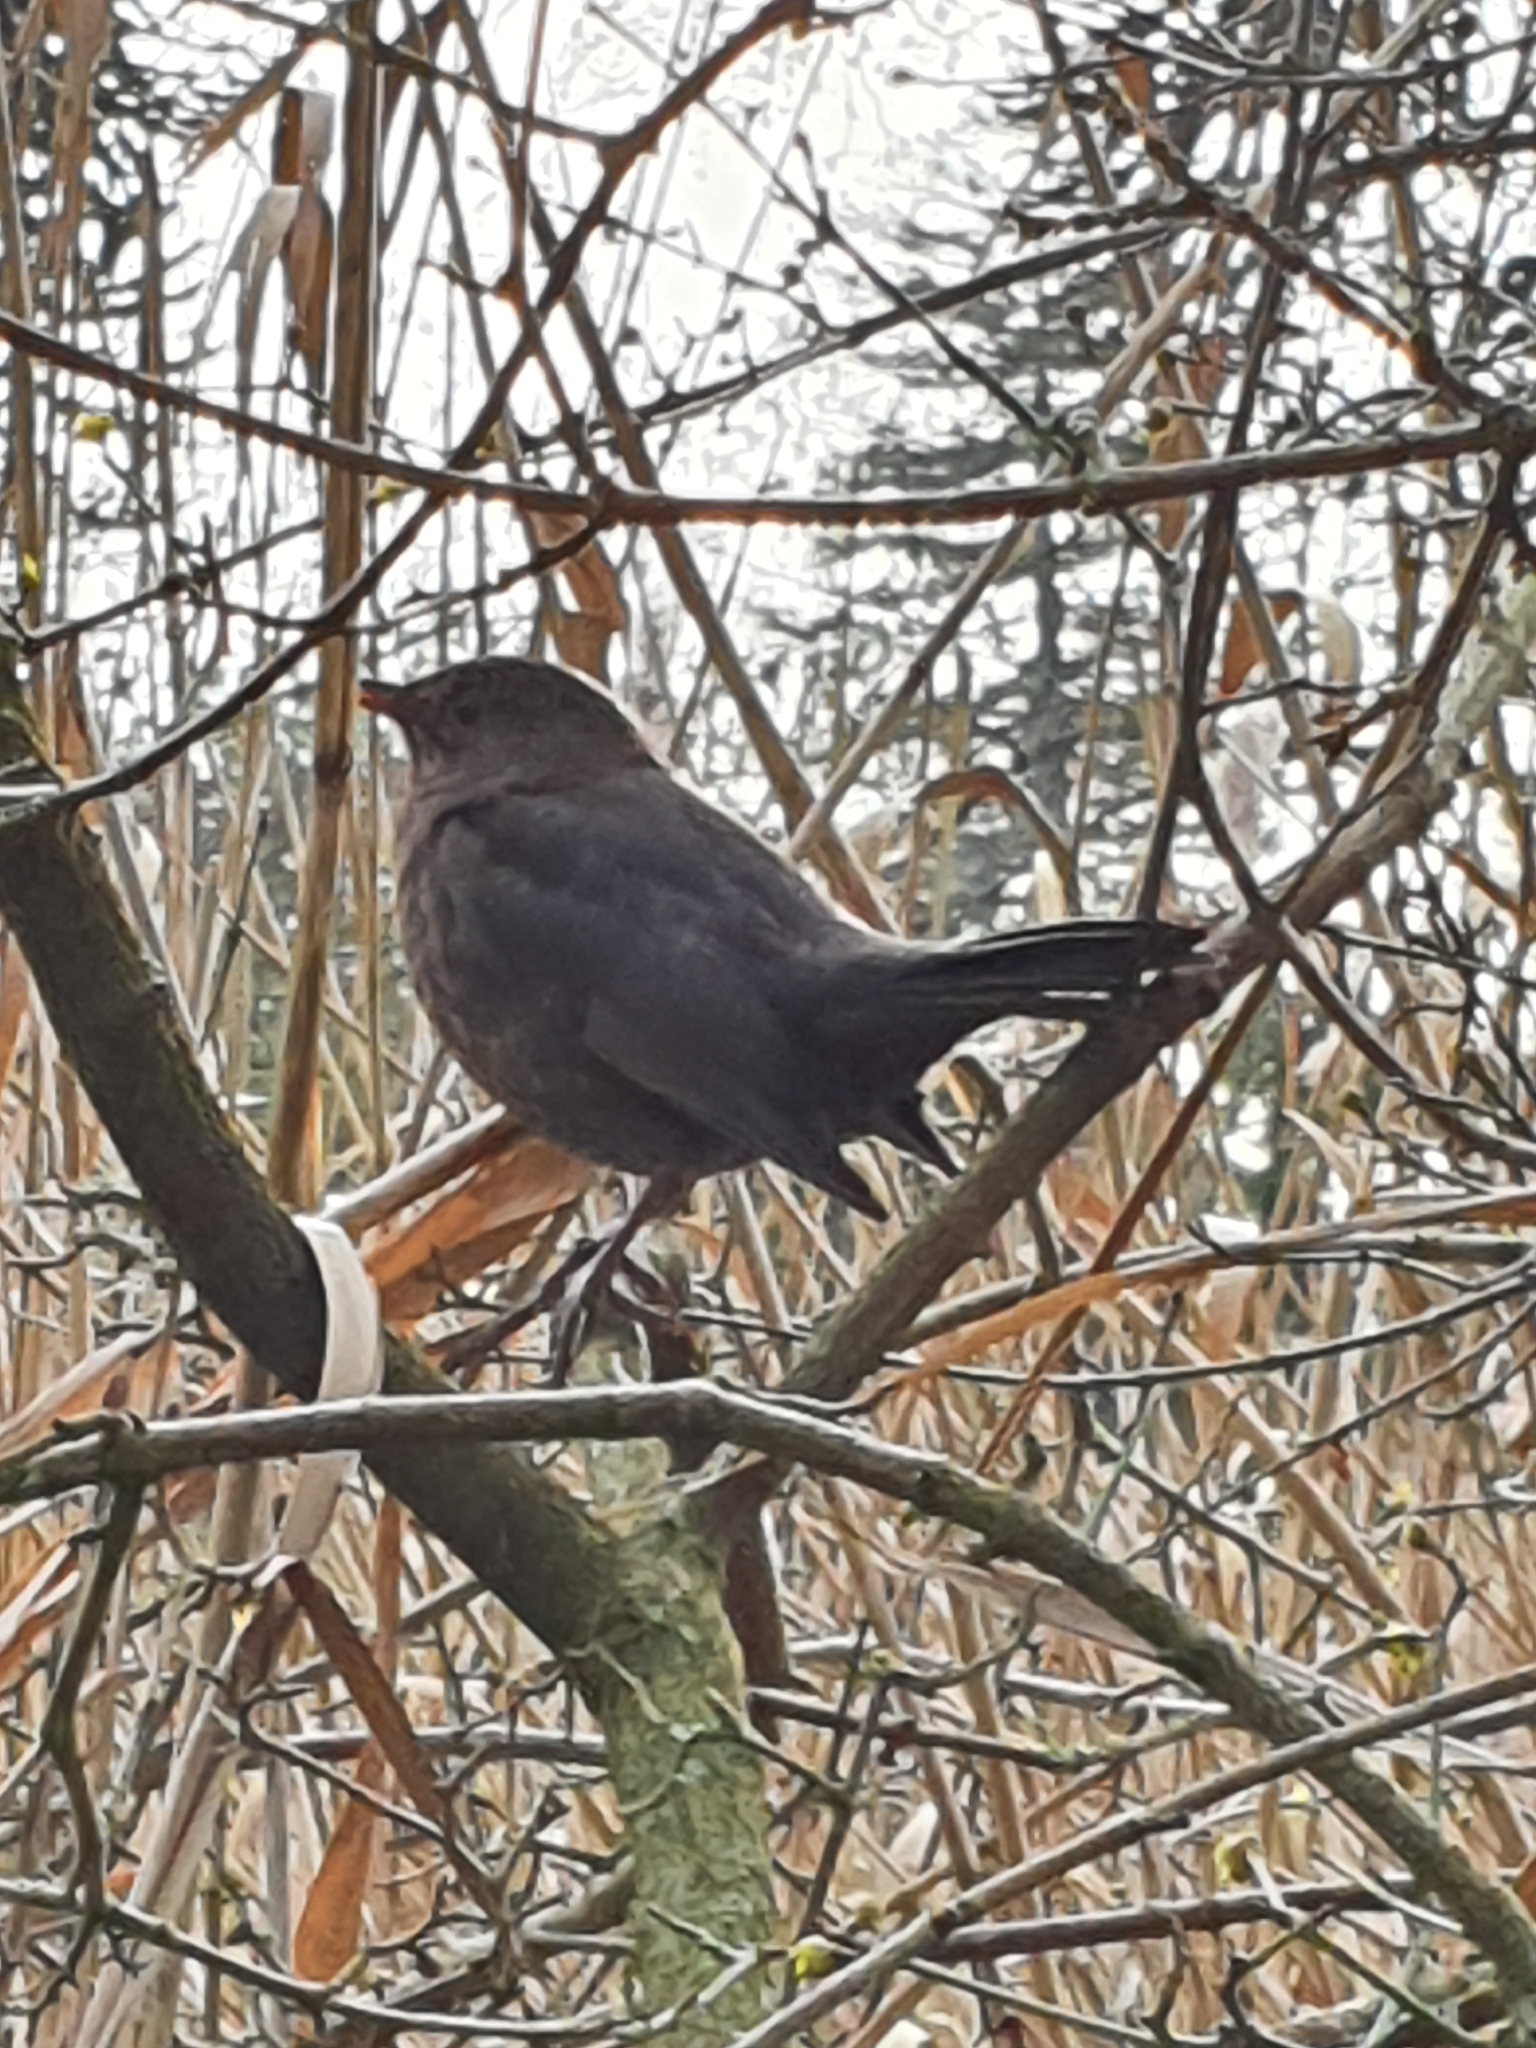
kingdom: Animalia
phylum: Chordata
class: Aves
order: Passeriformes
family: Turdidae
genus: Turdus
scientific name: Turdus merula
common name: Common blackbird
